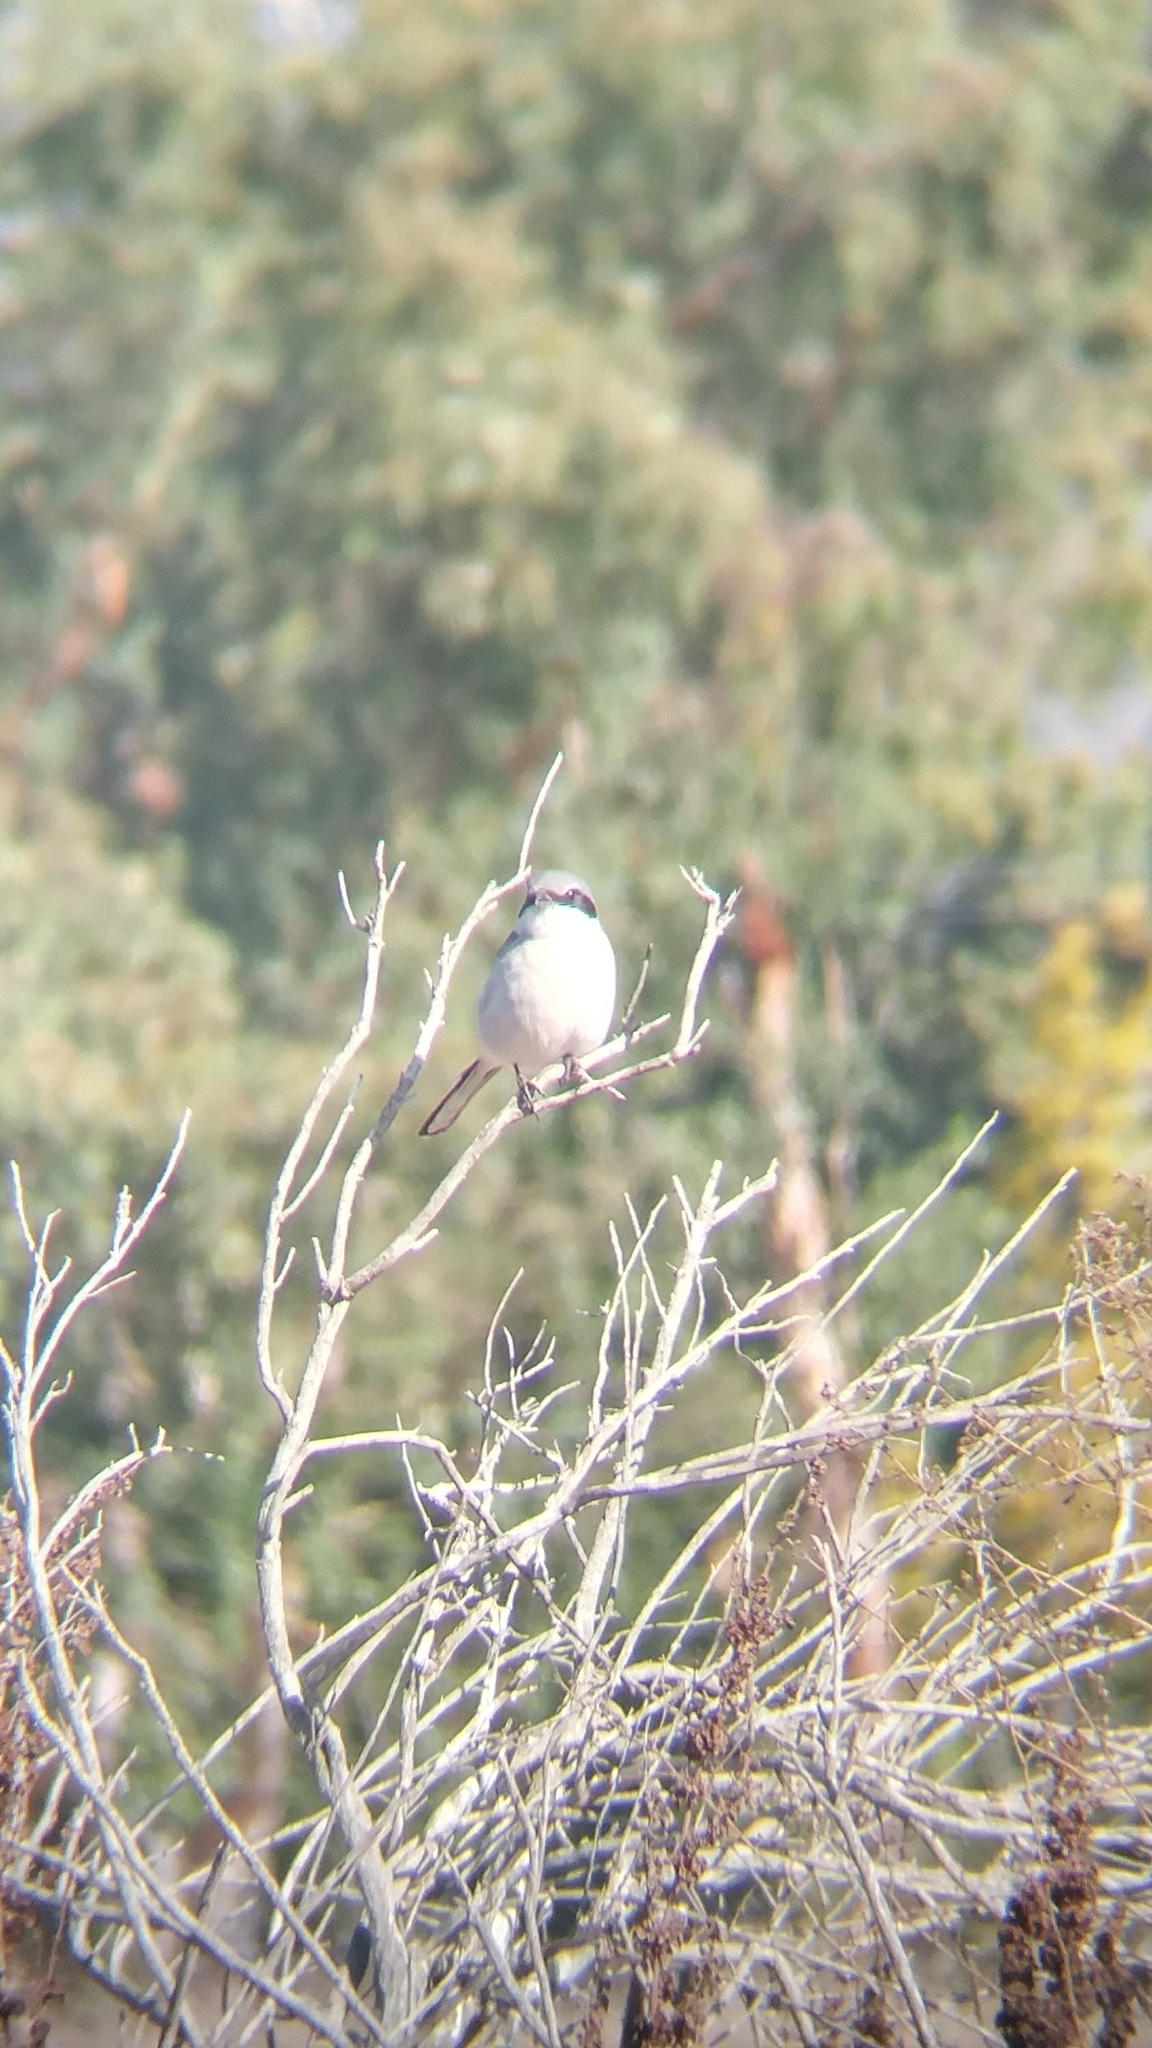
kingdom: Animalia
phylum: Chordata
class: Aves
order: Passeriformes
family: Laniidae
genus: Lanius
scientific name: Lanius ludovicianus
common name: Loggerhead shrike
